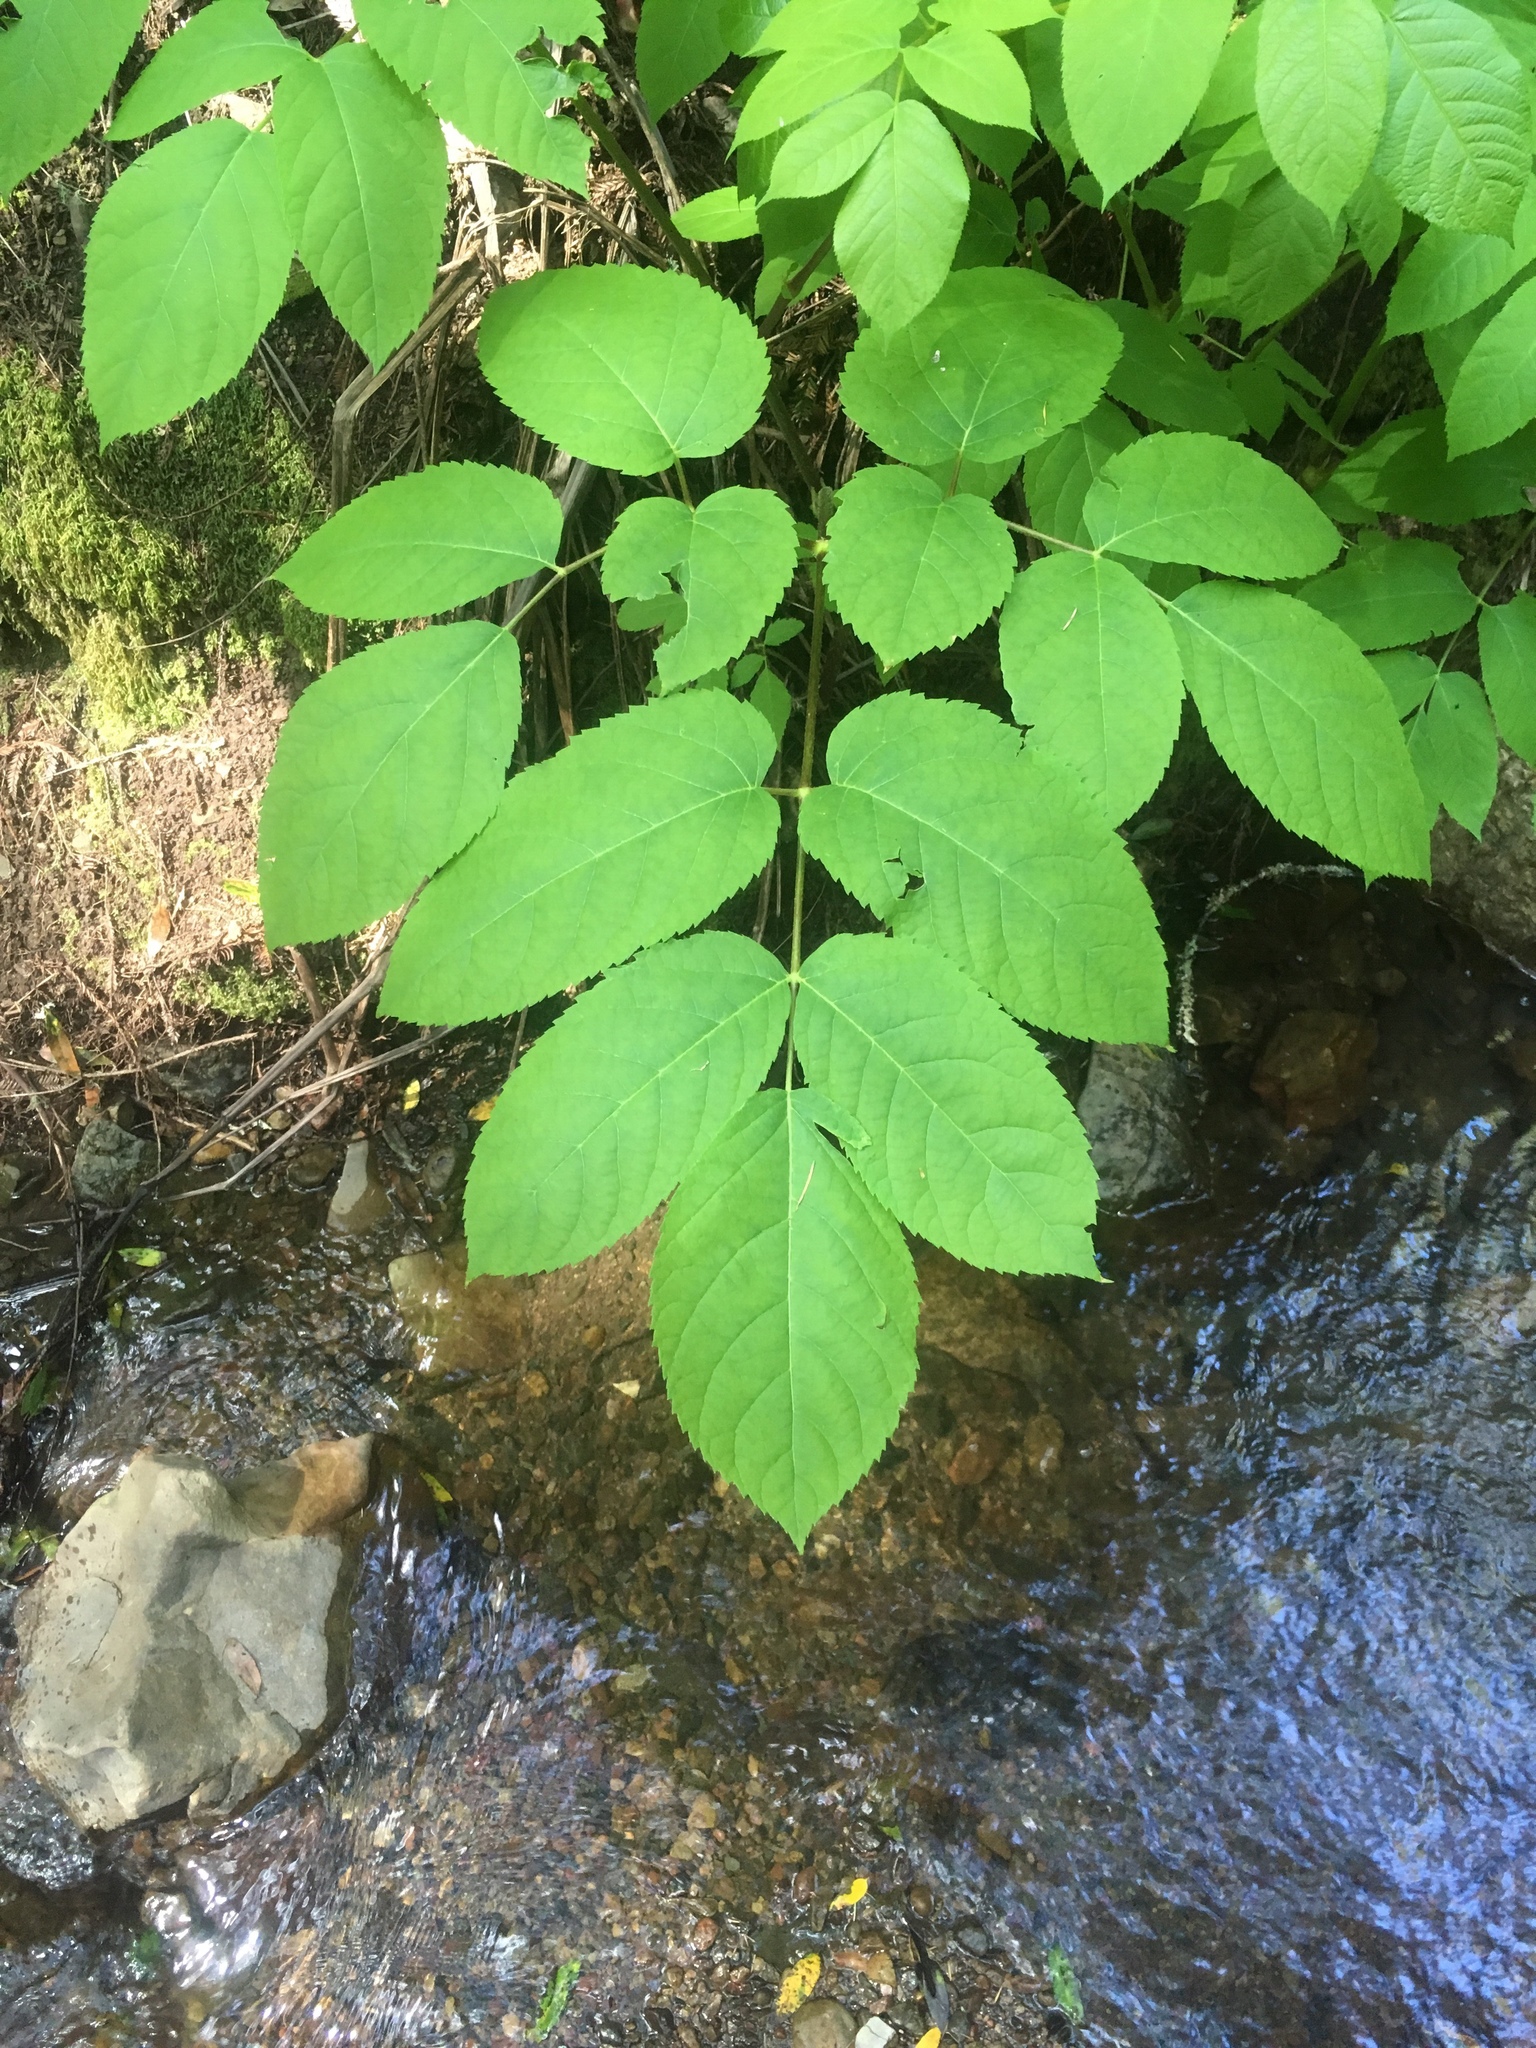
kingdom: Plantae
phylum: Tracheophyta
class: Magnoliopsida
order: Apiales
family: Araliaceae
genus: Aralia
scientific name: Aralia californica
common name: California-ginseng
